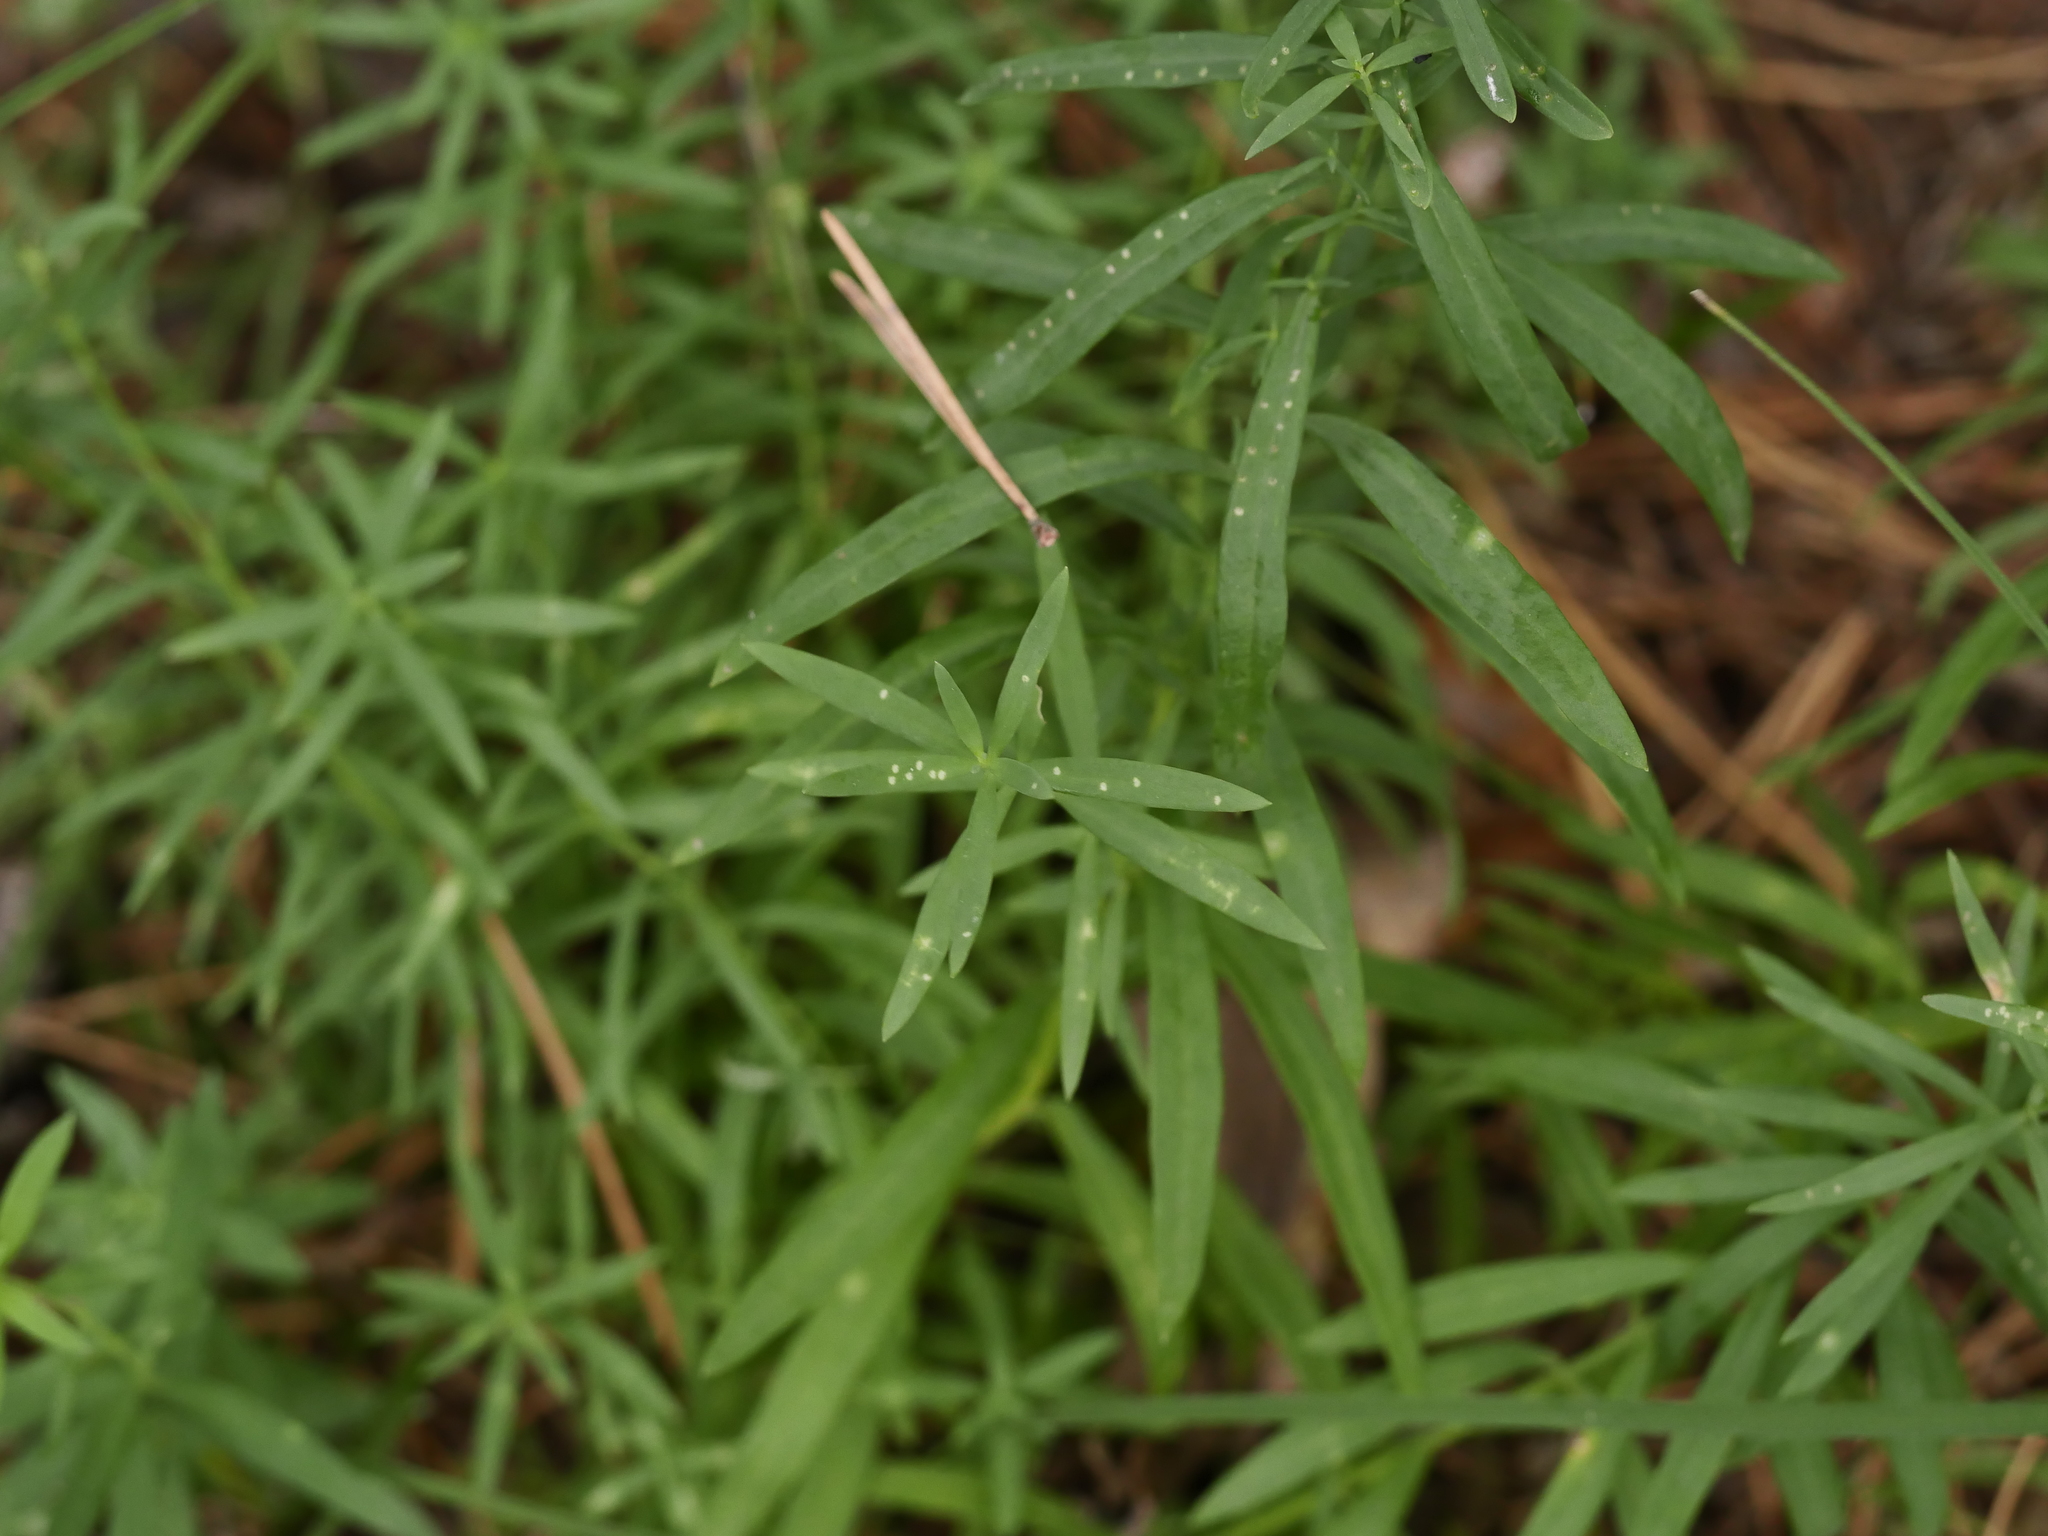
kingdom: Plantae
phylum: Tracheophyta
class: Magnoliopsida
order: Lamiales
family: Plantaginaceae
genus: Linaria
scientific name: Linaria vulgaris
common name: Butter and eggs
